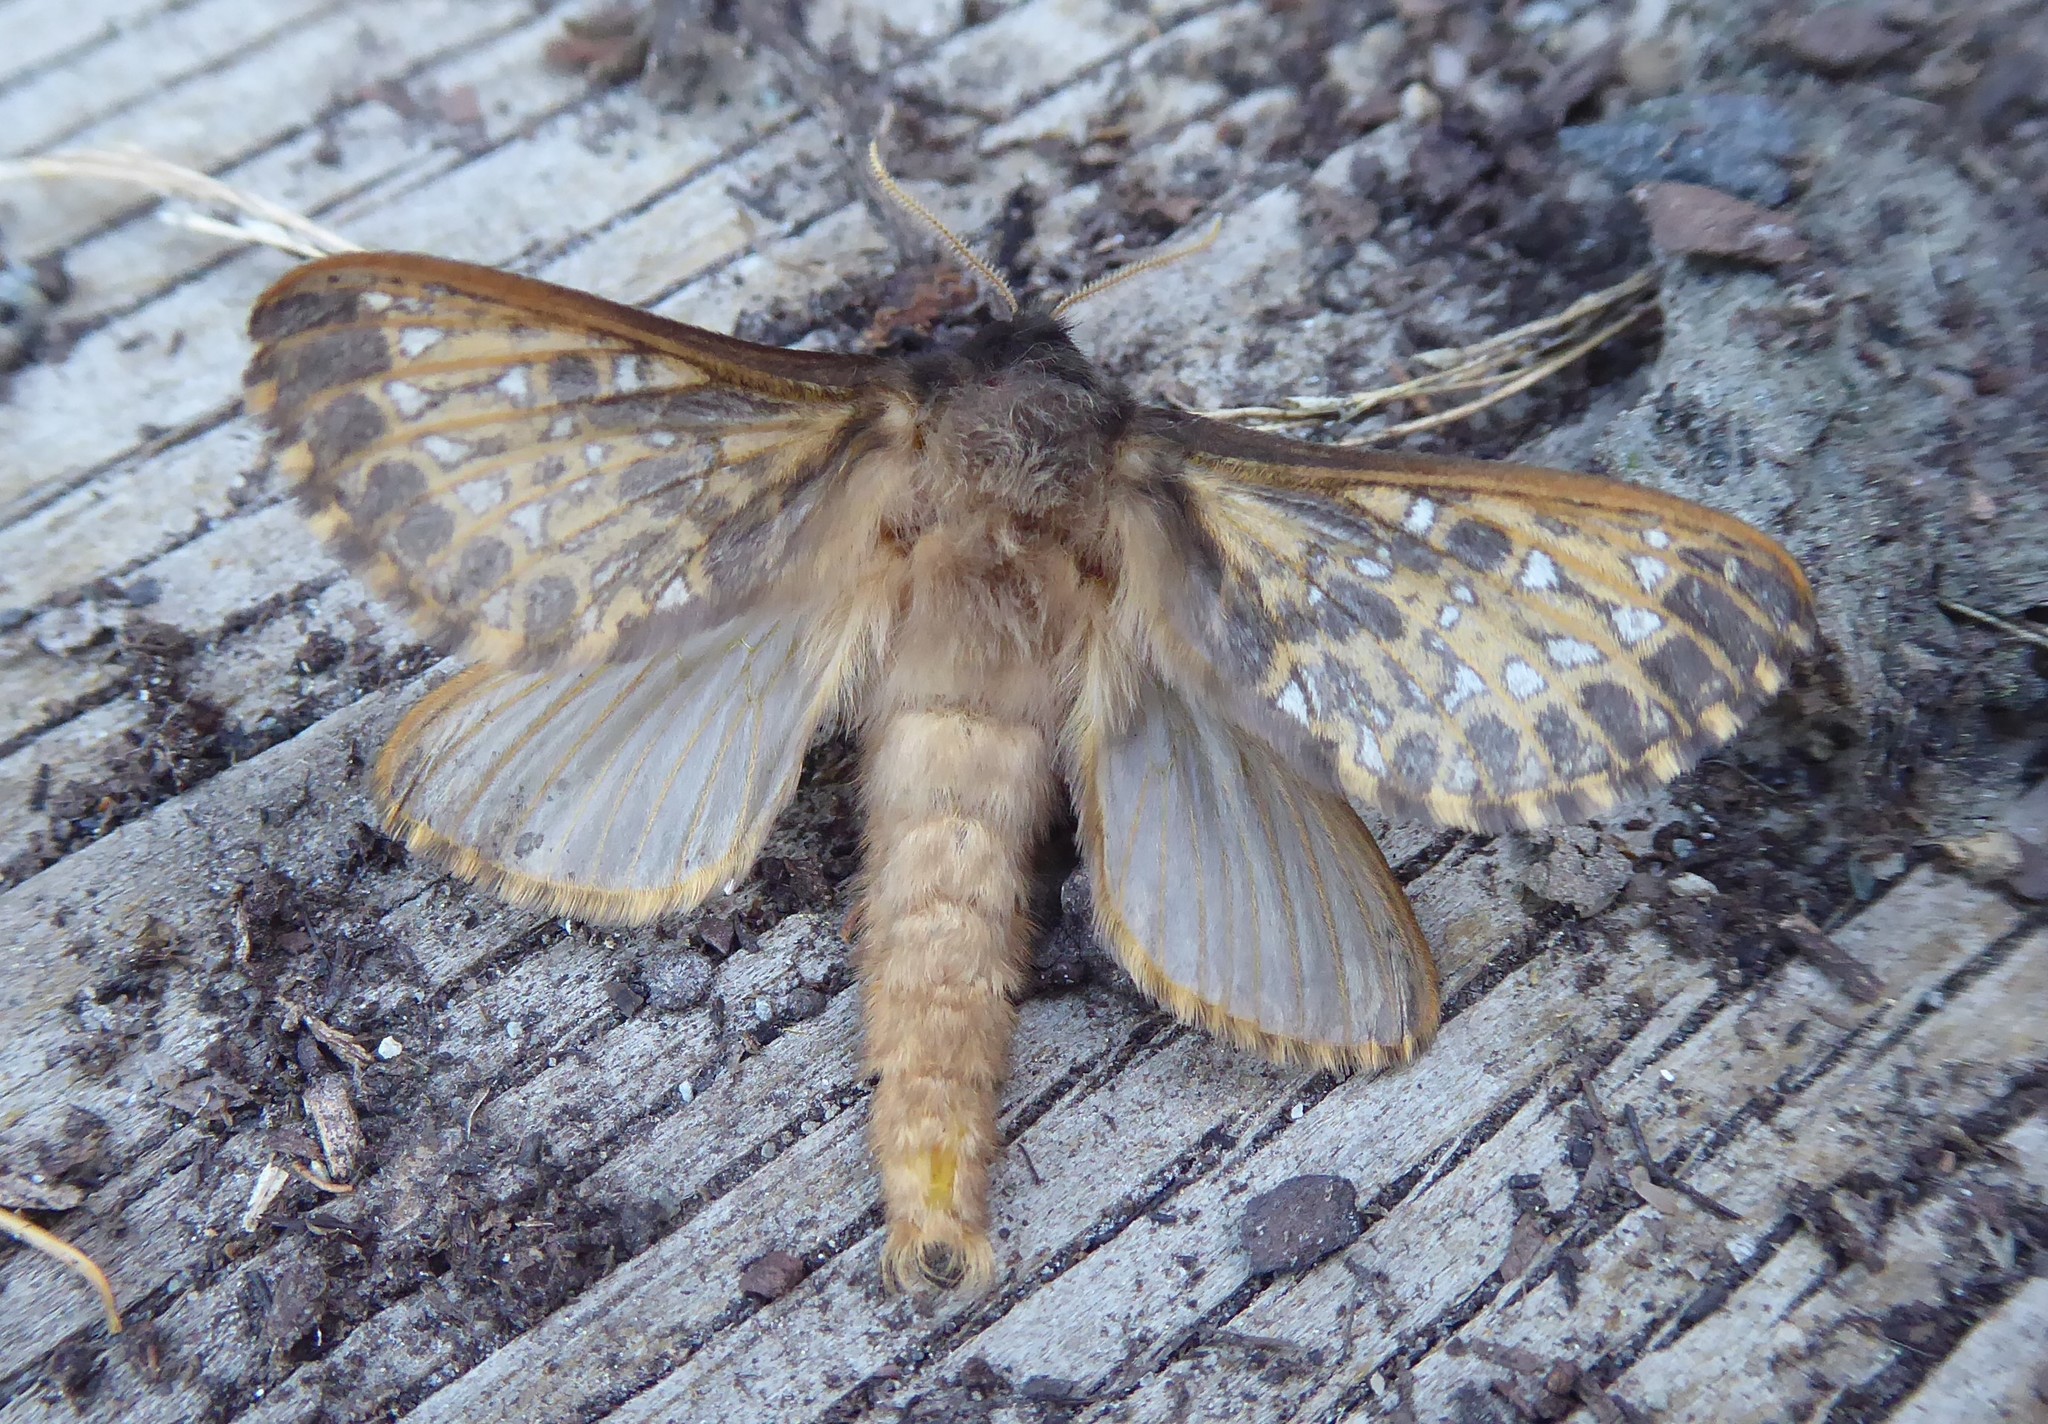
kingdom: Animalia
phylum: Arthropoda
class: Insecta
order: Lepidoptera
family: Hepialidae
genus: Cladoxycanus
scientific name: Cladoxycanus minos
